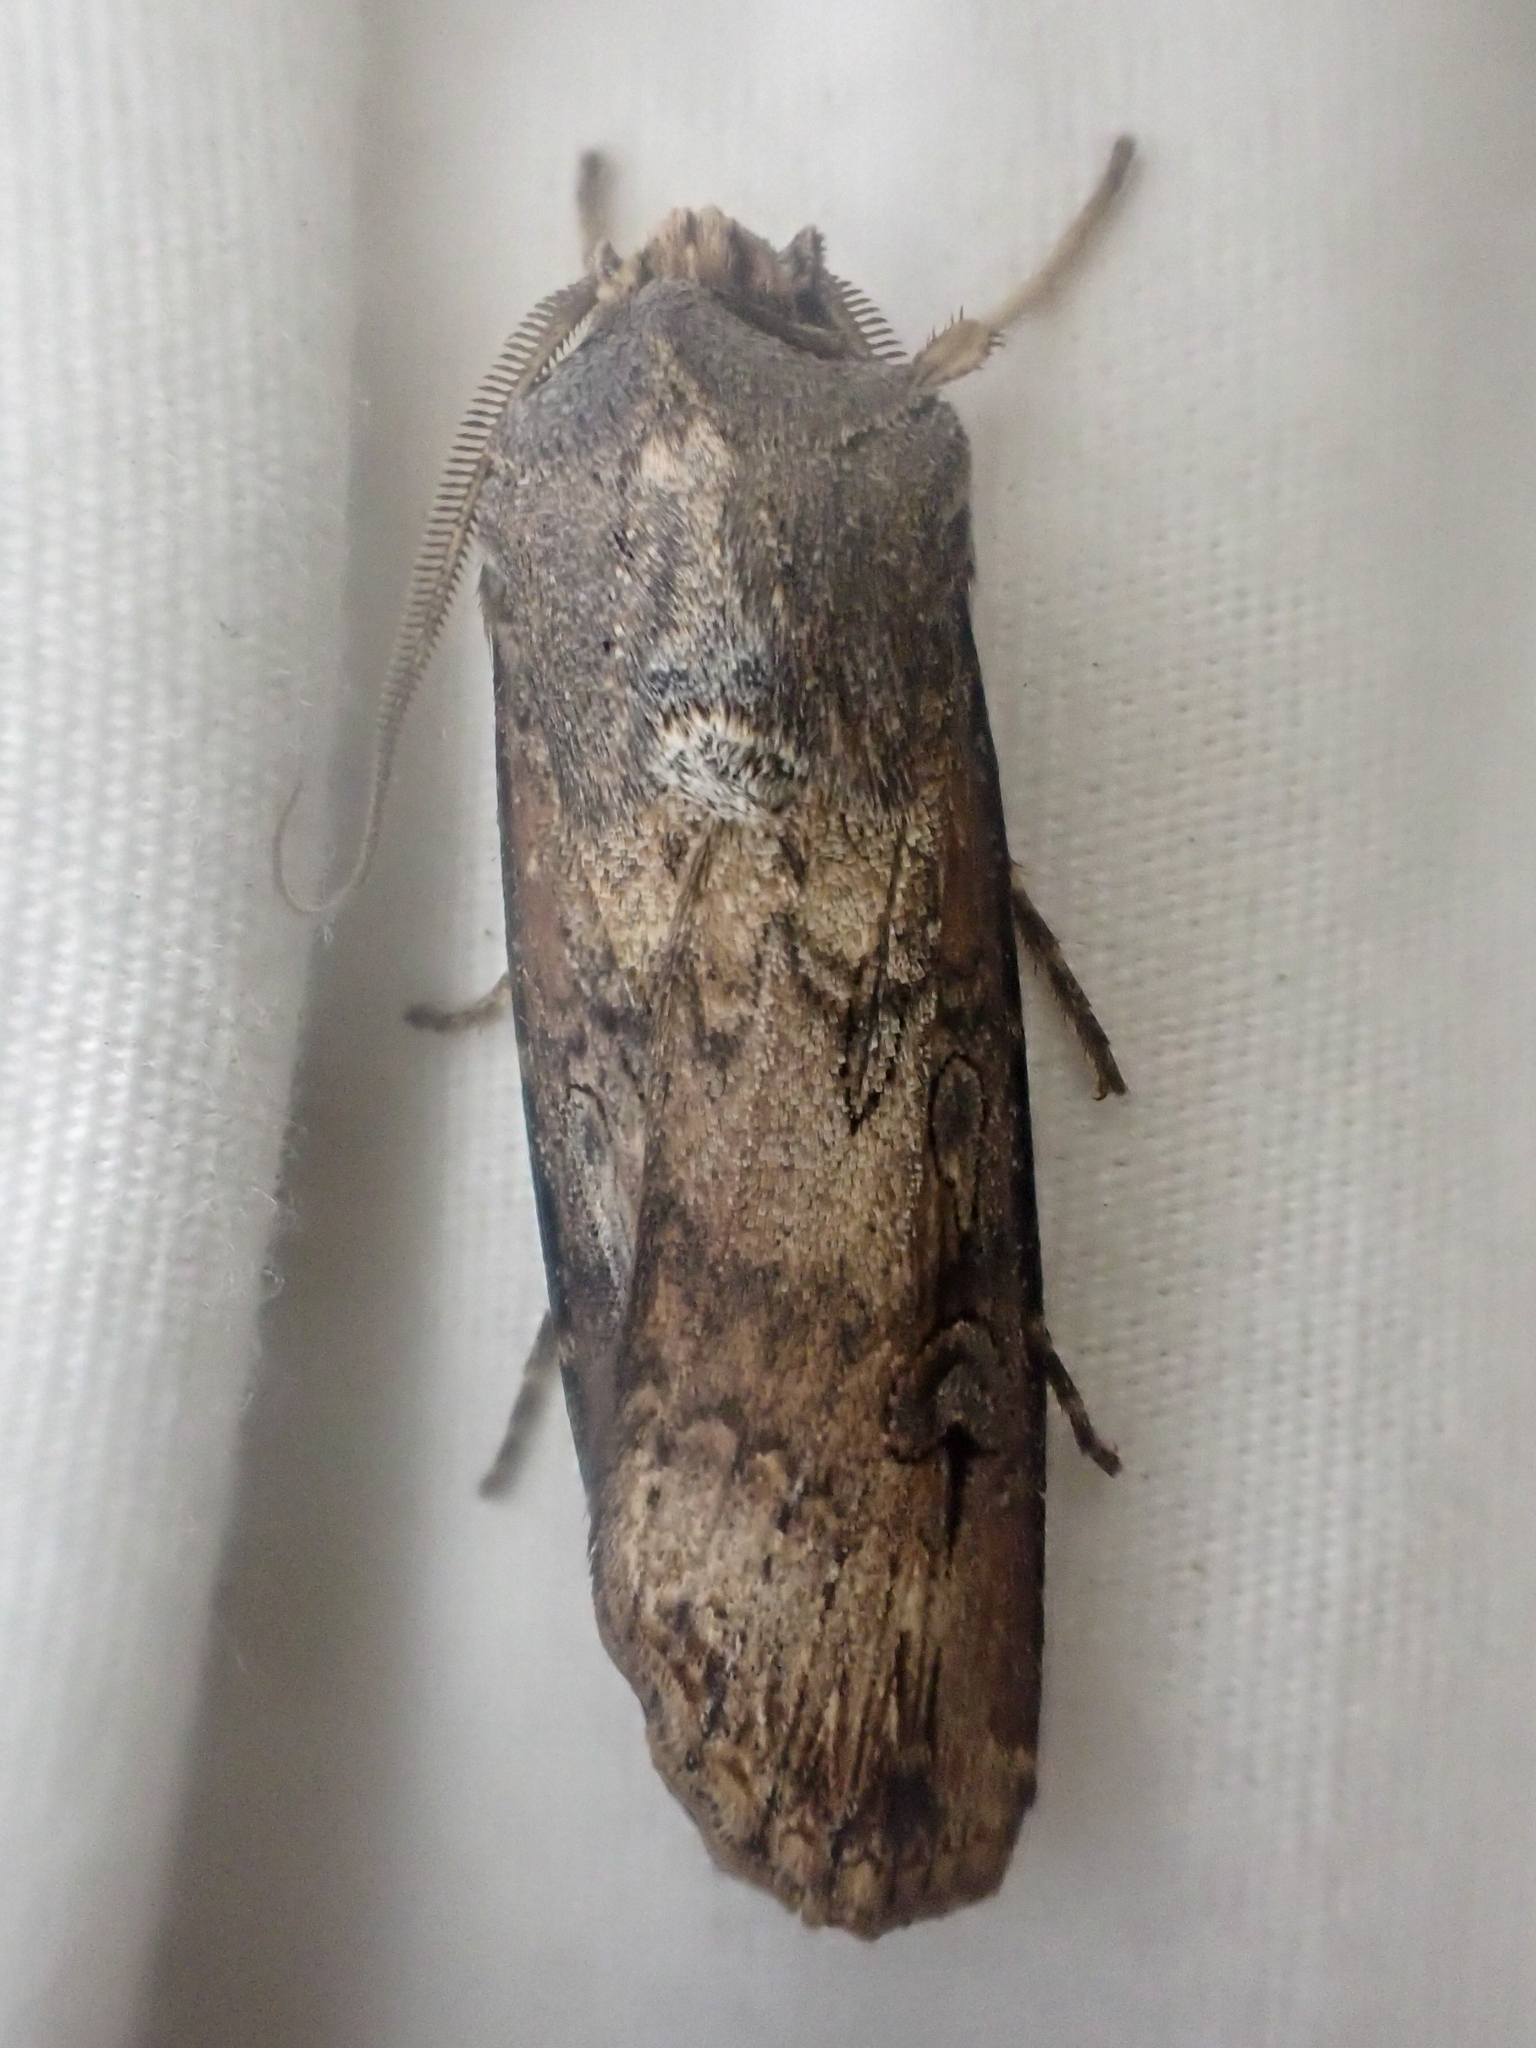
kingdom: Animalia
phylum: Arthropoda
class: Insecta
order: Lepidoptera
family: Noctuidae
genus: Agrotis
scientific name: Agrotis ipsilon
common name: Dark sword-grass
